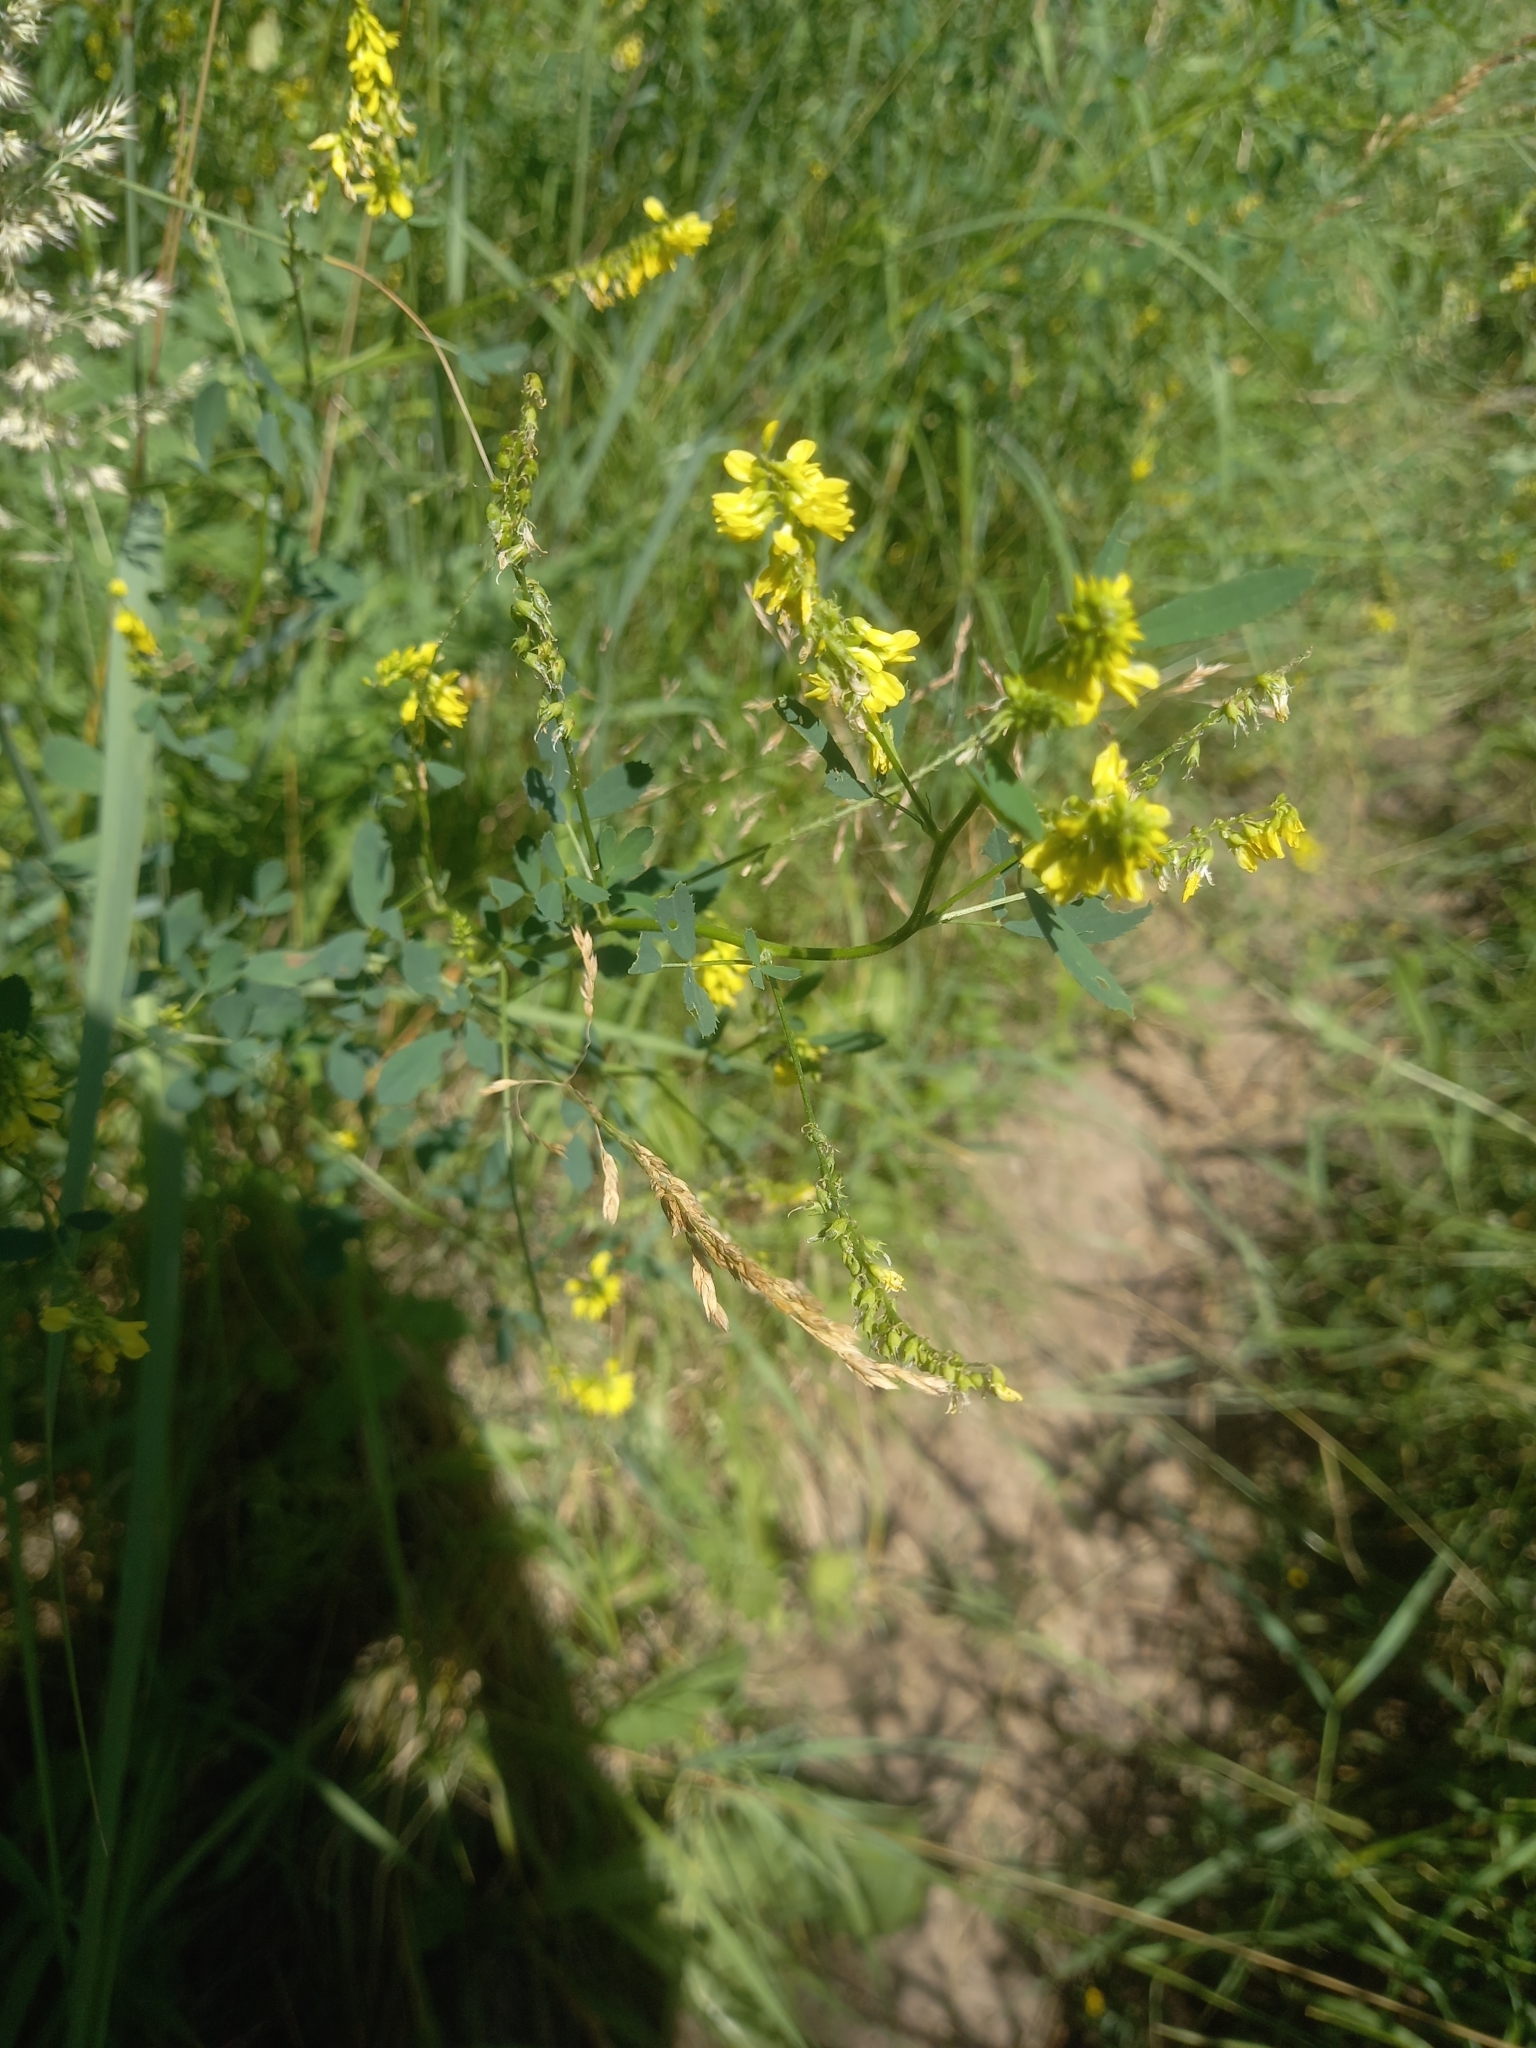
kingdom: Plantae
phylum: Tracheophyta
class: Magnoliopsida
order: Fabales
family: Fabaceae
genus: Melilotus
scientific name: Melilotus officinalis
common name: Sweetclover
